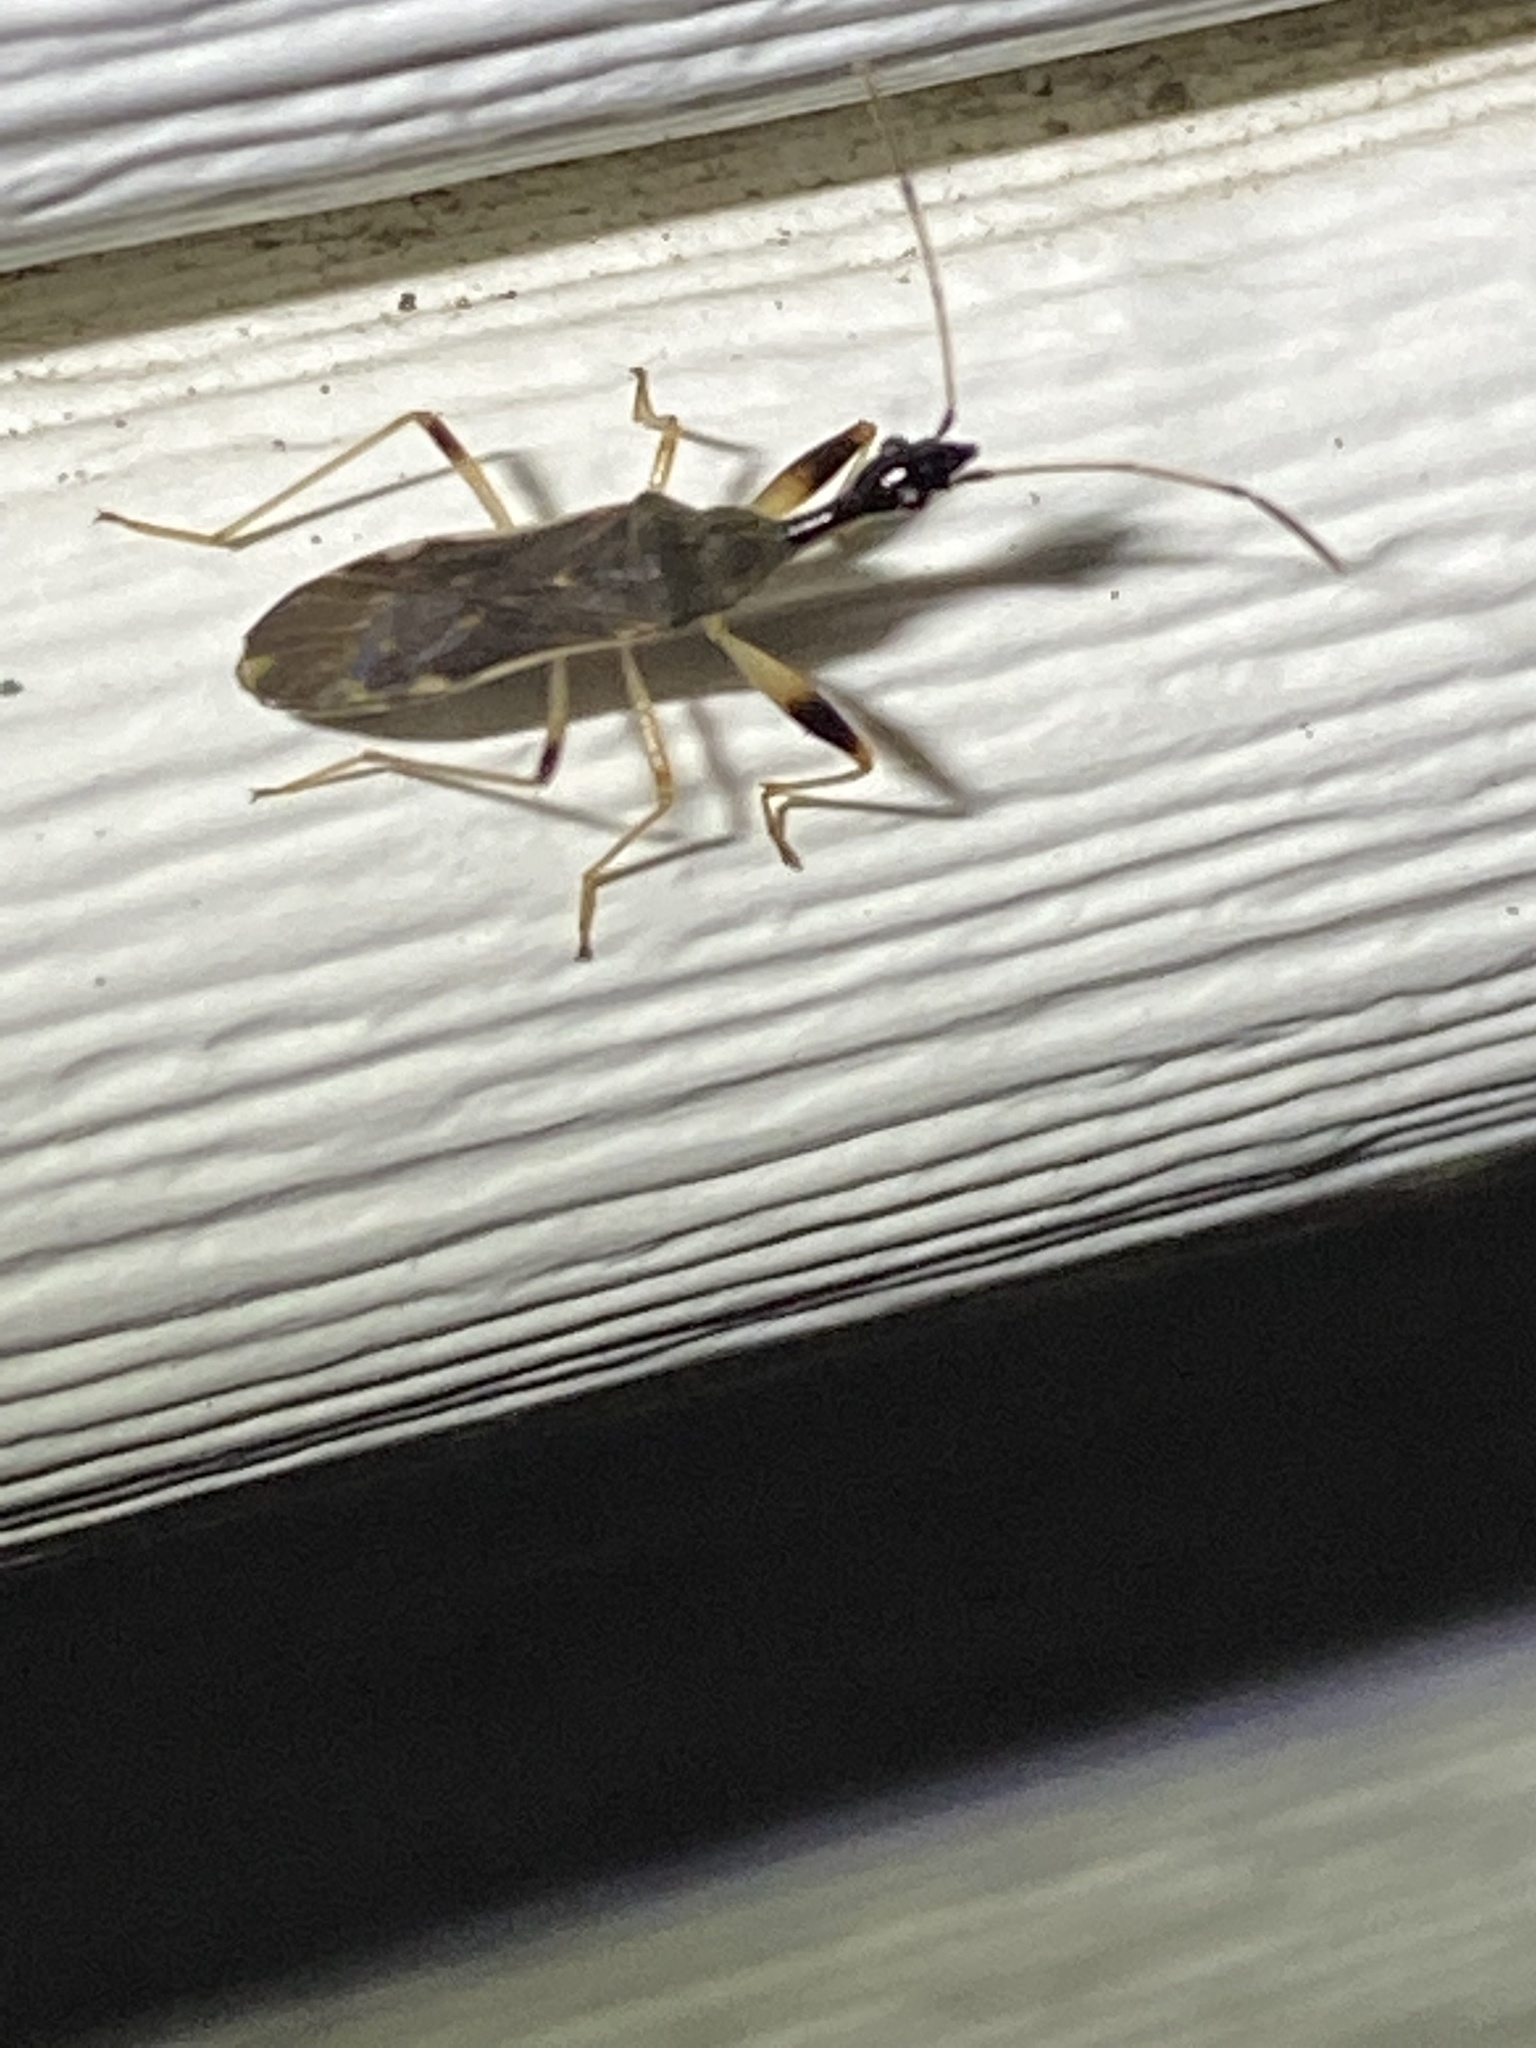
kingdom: Animalia
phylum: Arthropoda
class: Insecta
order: Hemiptera
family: Rhyparochromidae
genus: Myodocha
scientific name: Myodocha serripes
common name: Long-necked seed bug
